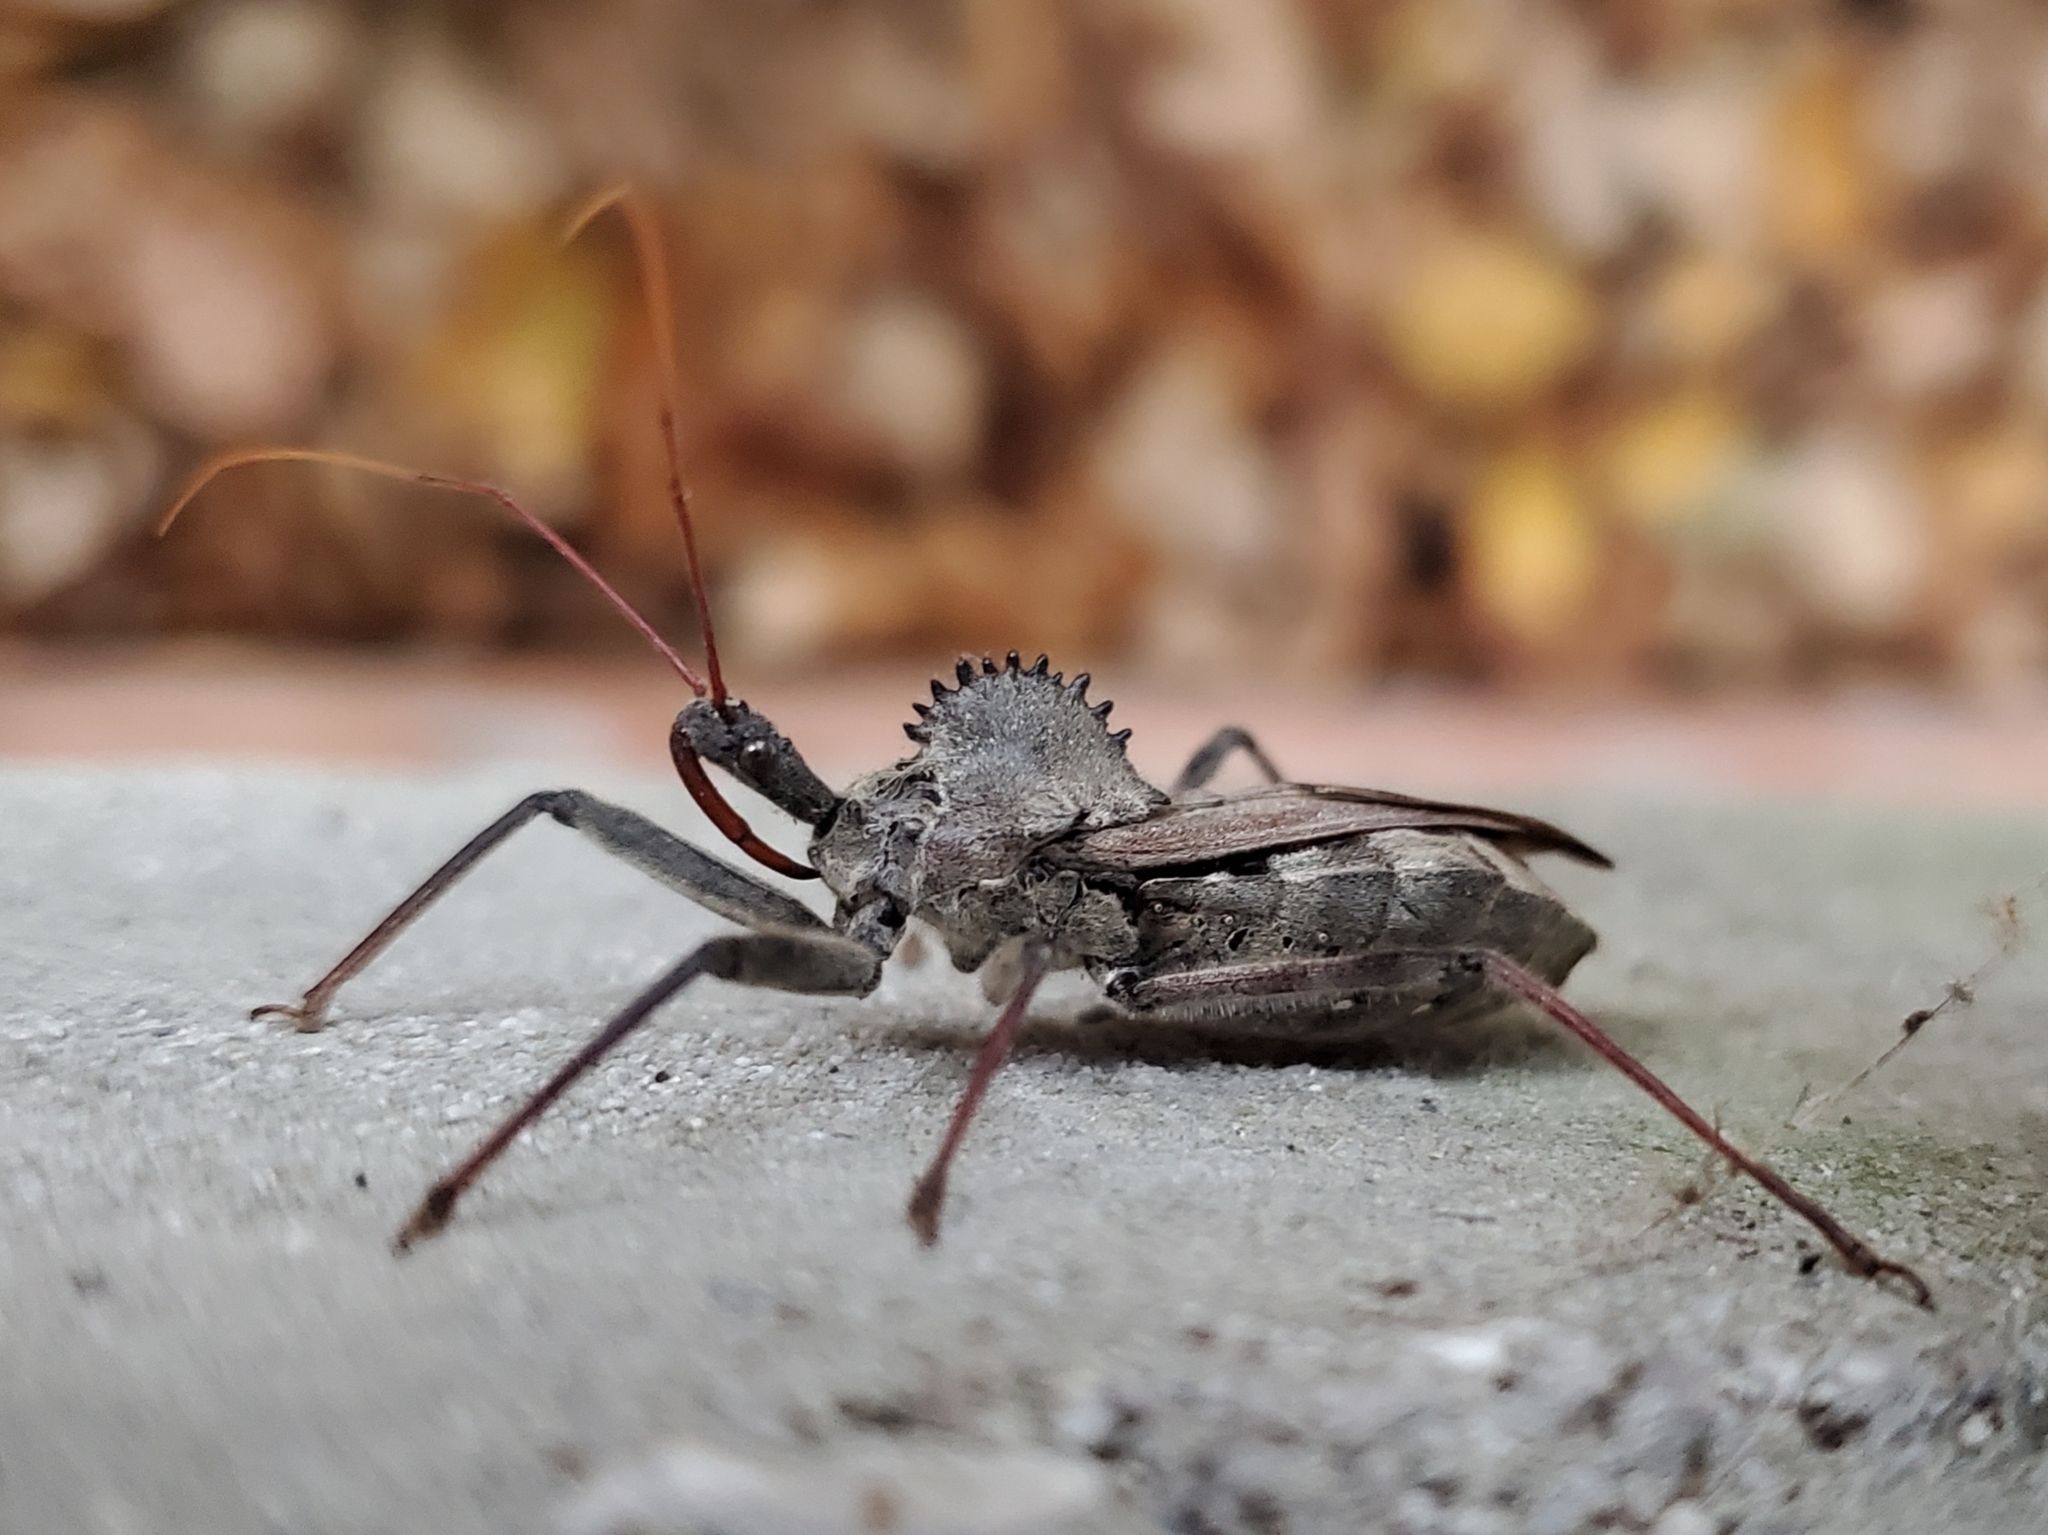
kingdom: Animalia
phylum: Arthropoda
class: Insecta
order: Hemiptera
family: Reduviidae
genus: Arilus
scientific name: Arilus cristatus
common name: North american wheel bug
